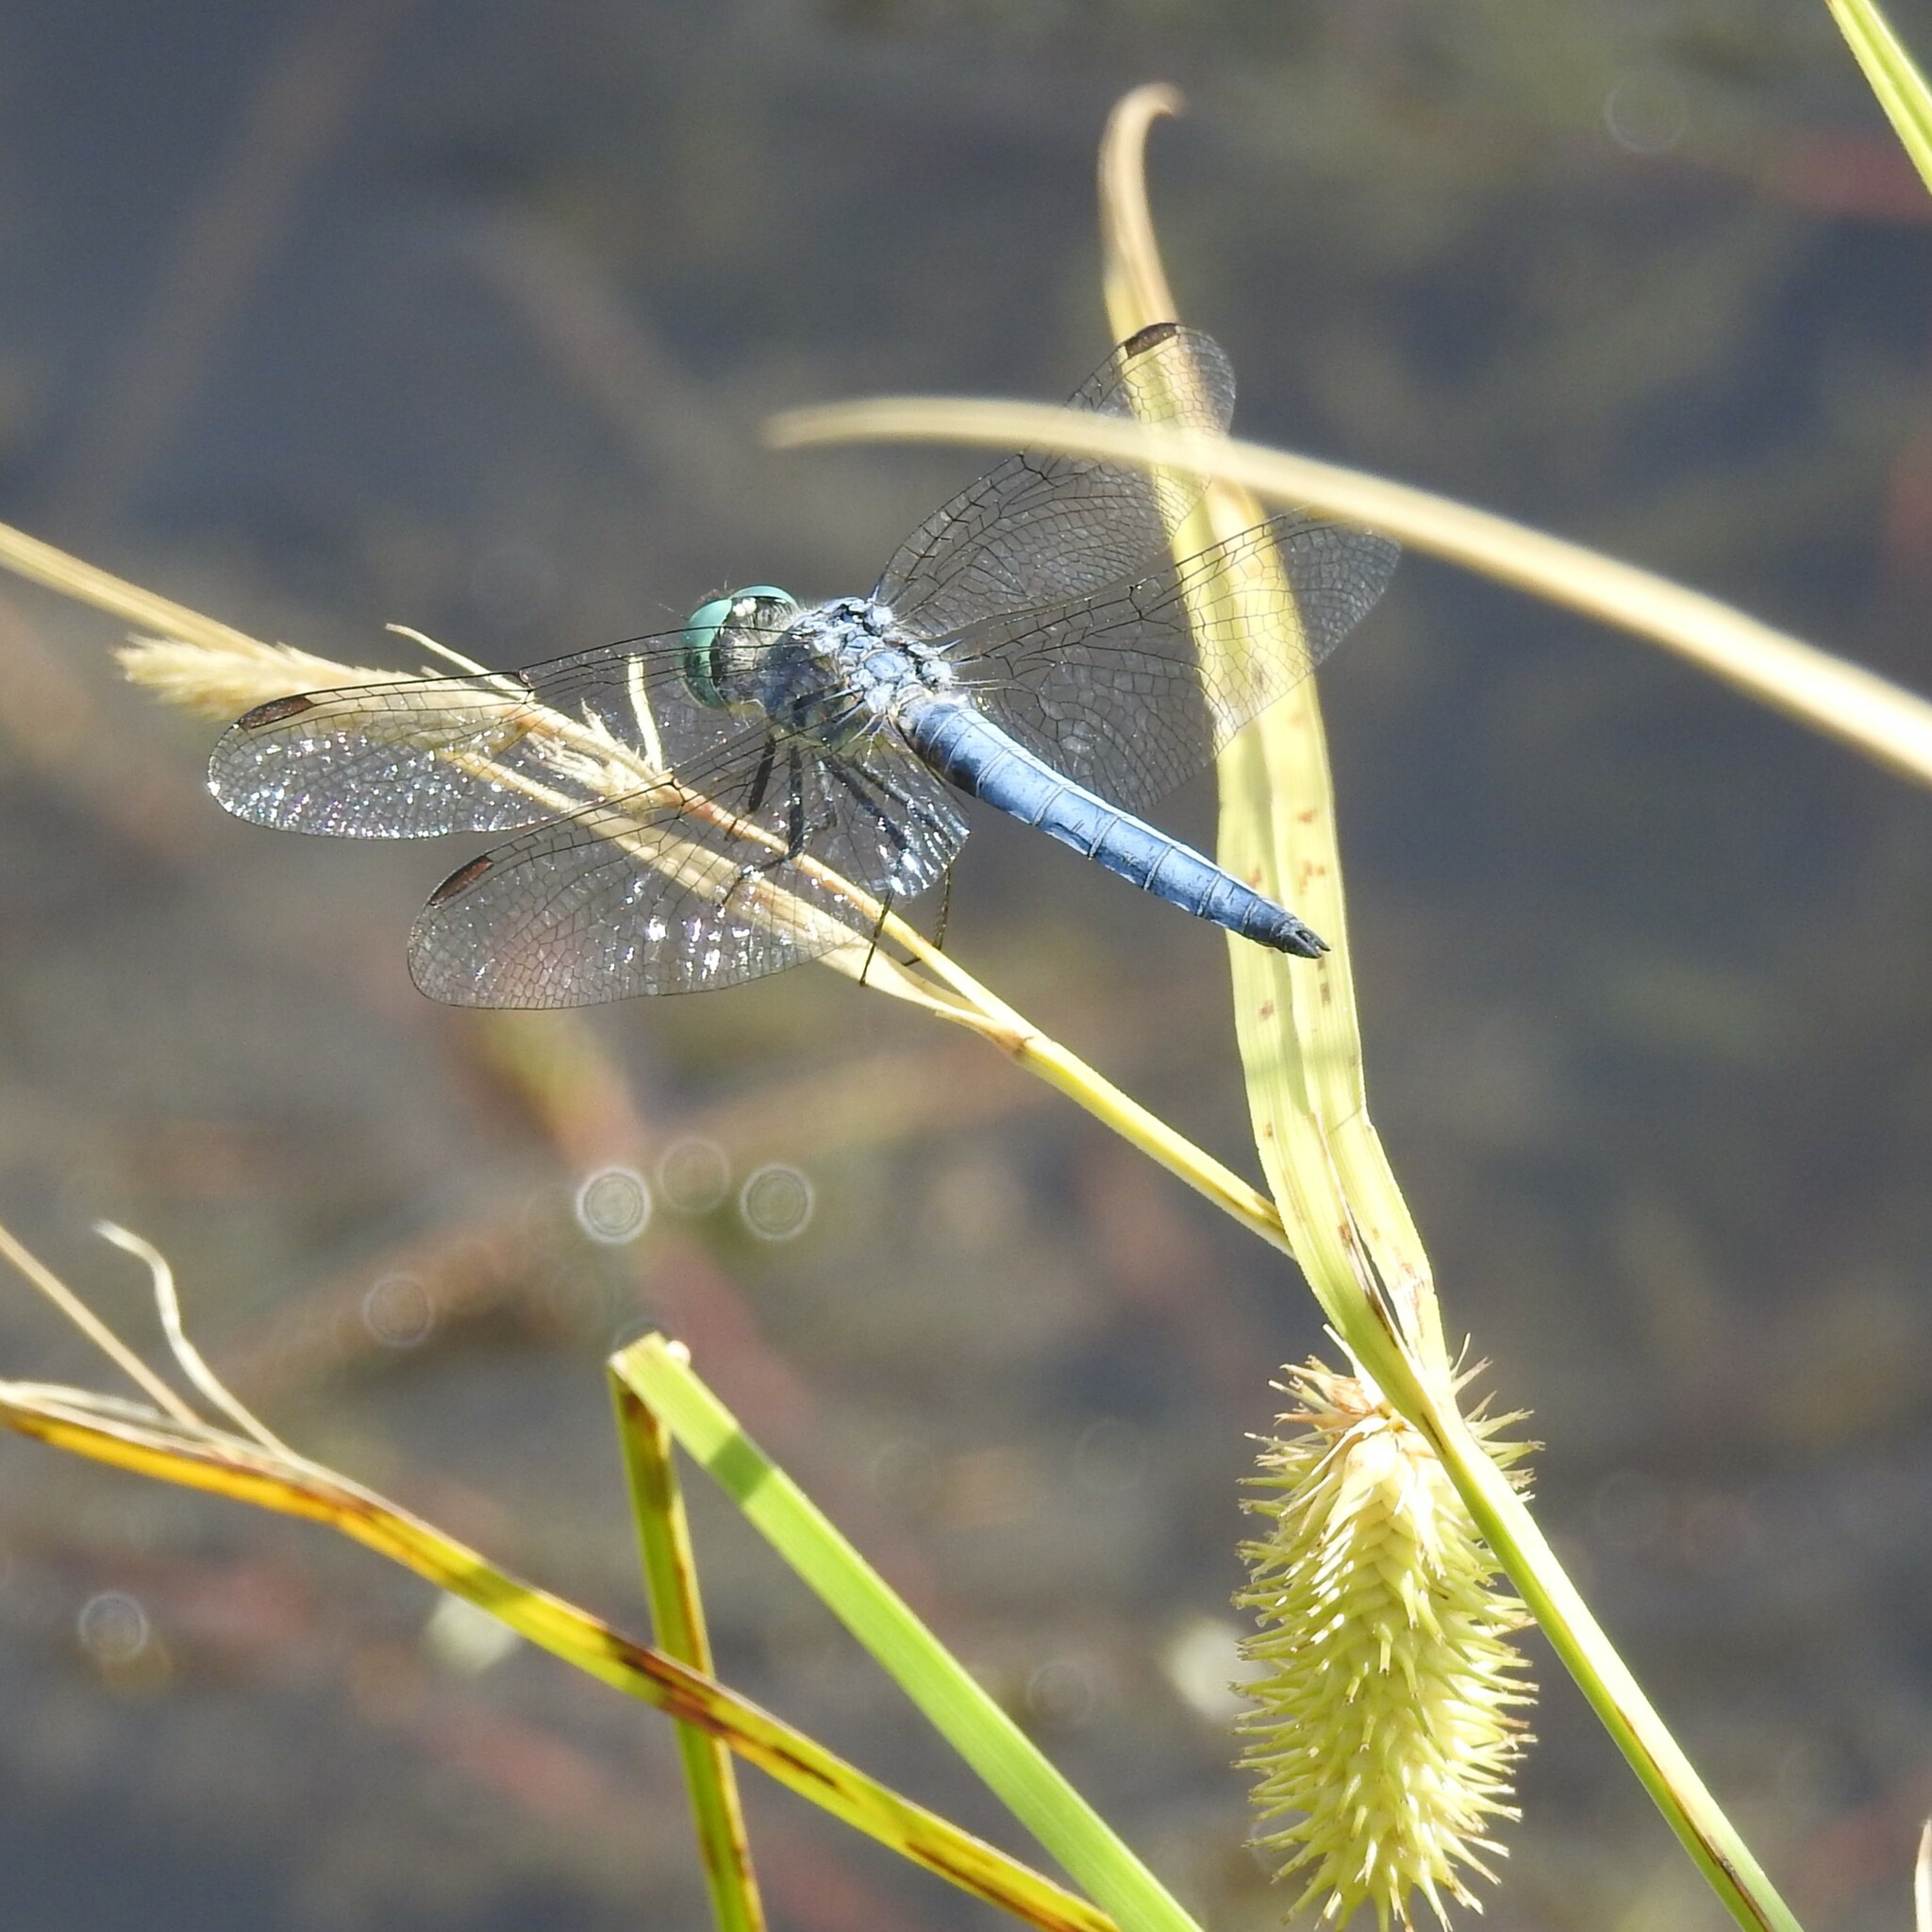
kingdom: Animalia
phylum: Arthropoda
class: Insecta
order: Odonata
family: Libellulidae
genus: Pachydiplax
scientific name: Pachydiplax longipennis
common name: Blue dasher
